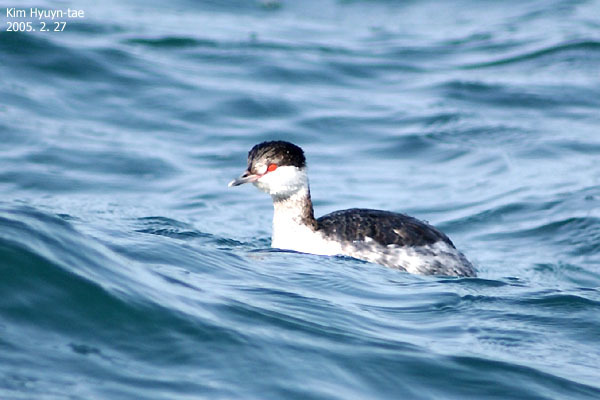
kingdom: Animalia
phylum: Chordata
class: Aves
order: Podicipediformes
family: Podicipedidae
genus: Podiceps
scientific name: Podiceps auritus
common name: Horned grebe
